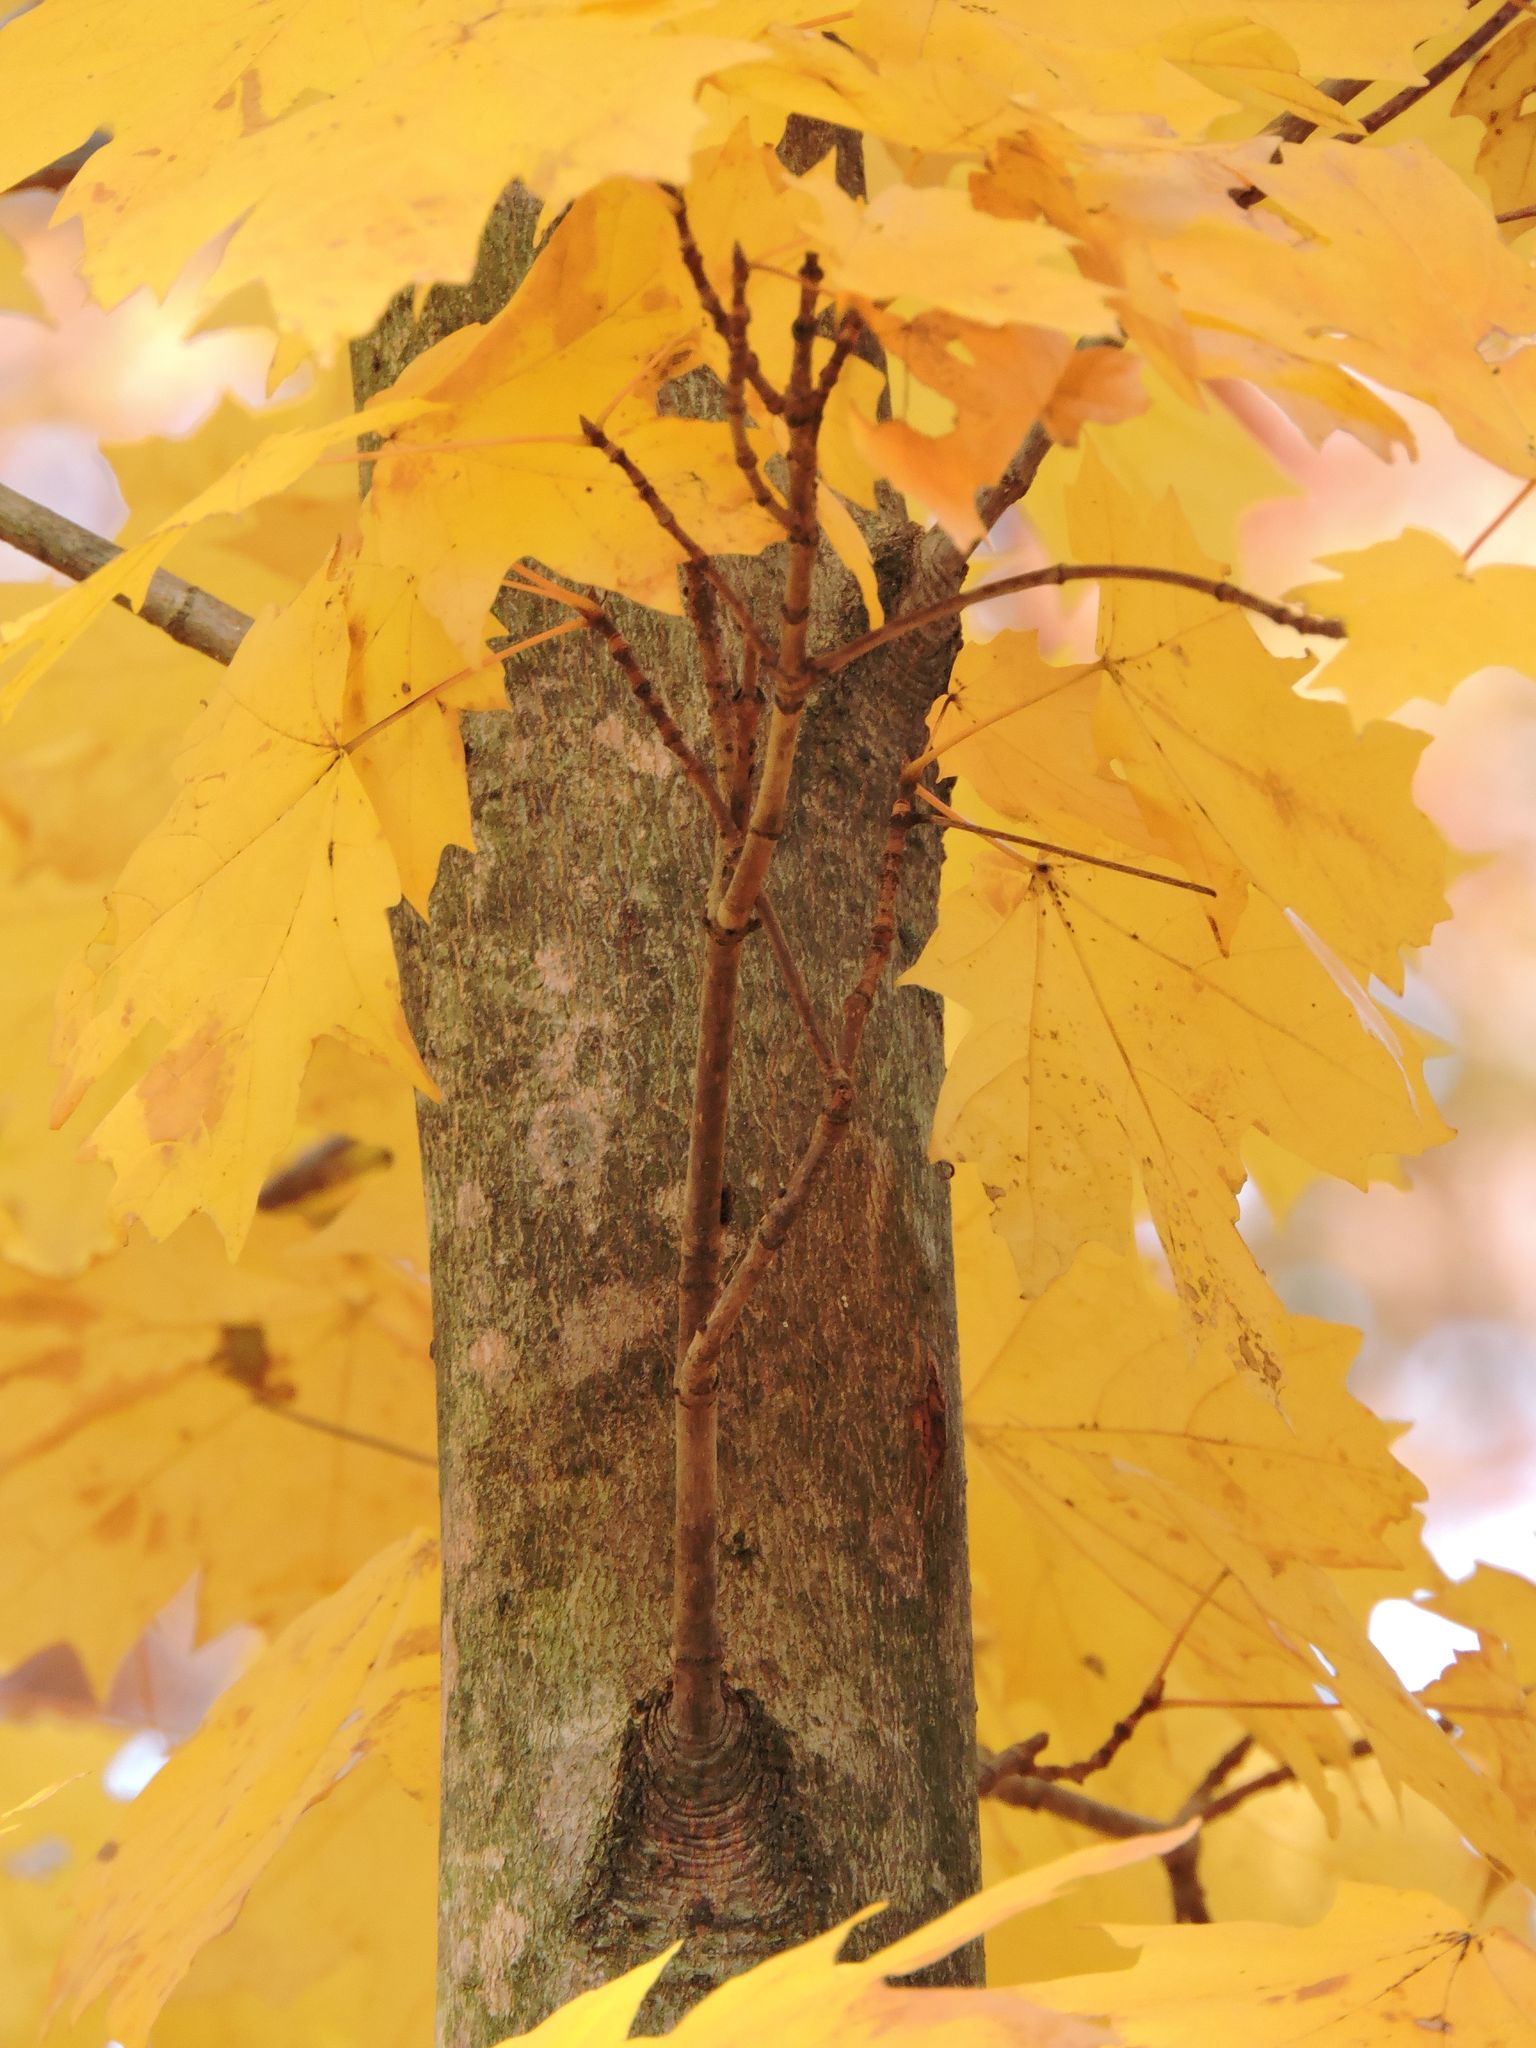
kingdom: Plantae
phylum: Tracheophyta
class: Magnoliopsida
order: Sapindales
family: Sapindaceae
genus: Acer
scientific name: Acer saccharum
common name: Sugar maple
